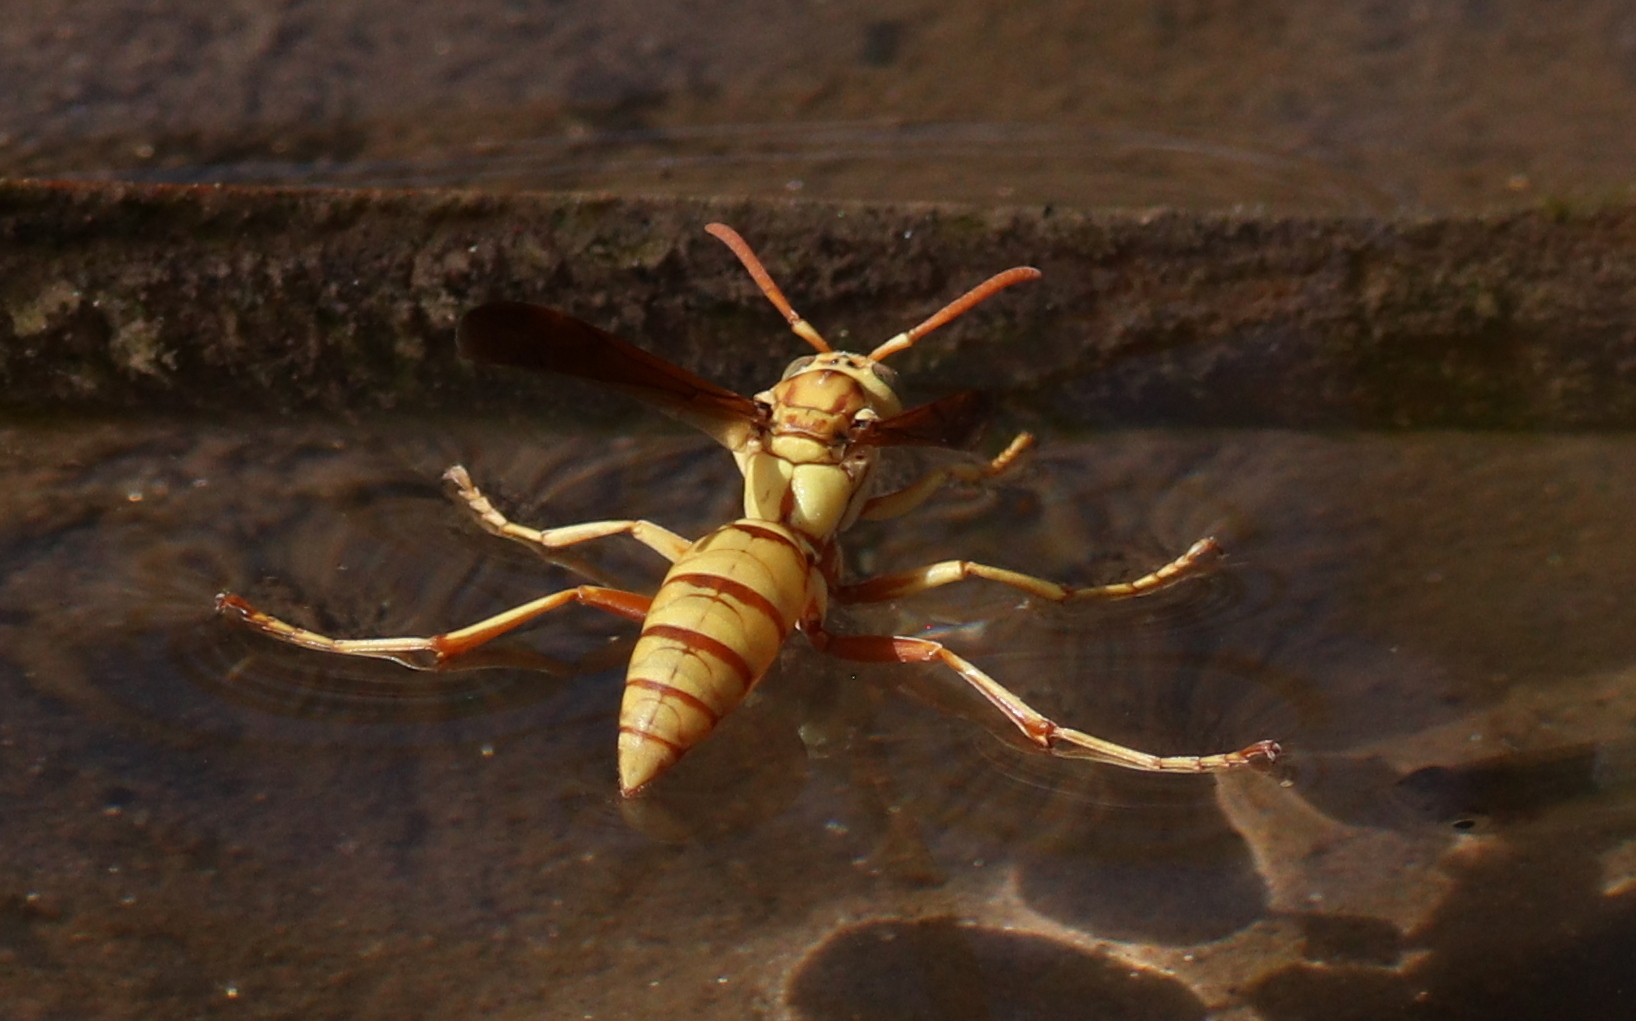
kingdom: Animalia
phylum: Arthropoda
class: Insecta
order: Hymenoptera
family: Eumenidae
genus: Polistes
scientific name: Polistes aurifer
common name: Paper wasp
